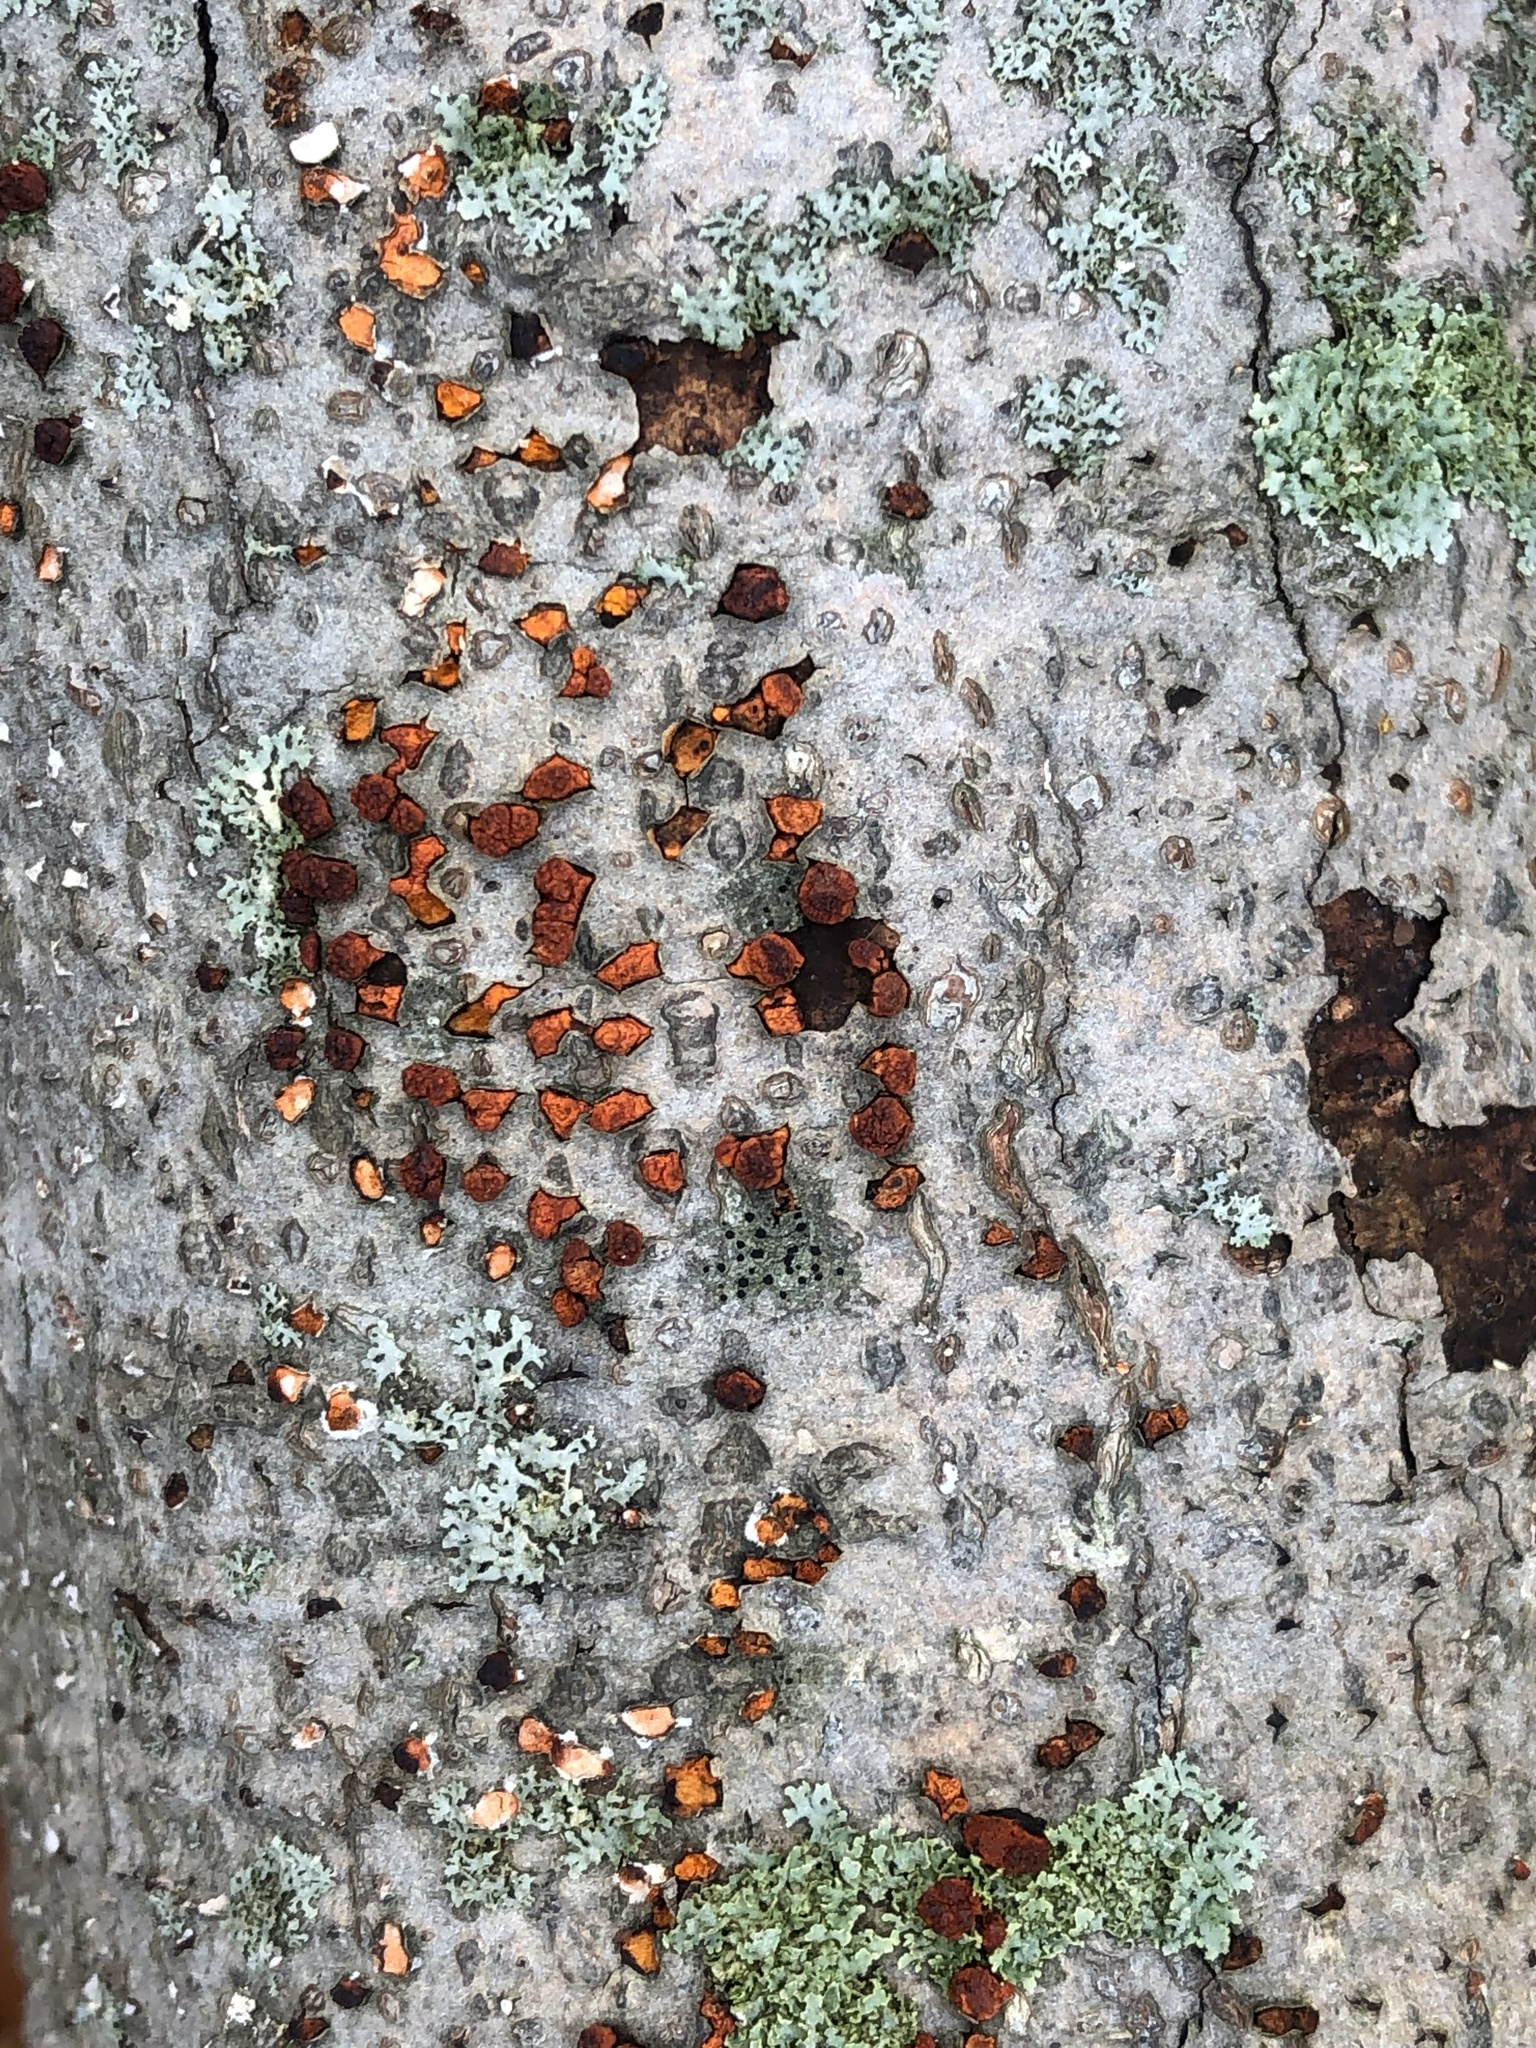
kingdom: Fungi
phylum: Ascomycota
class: Sordariomycetes
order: Diaporthales
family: Cryphonectriaceae
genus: Amphilogia
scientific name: Amphilogia gyrosa
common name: Orange hobnail canker
